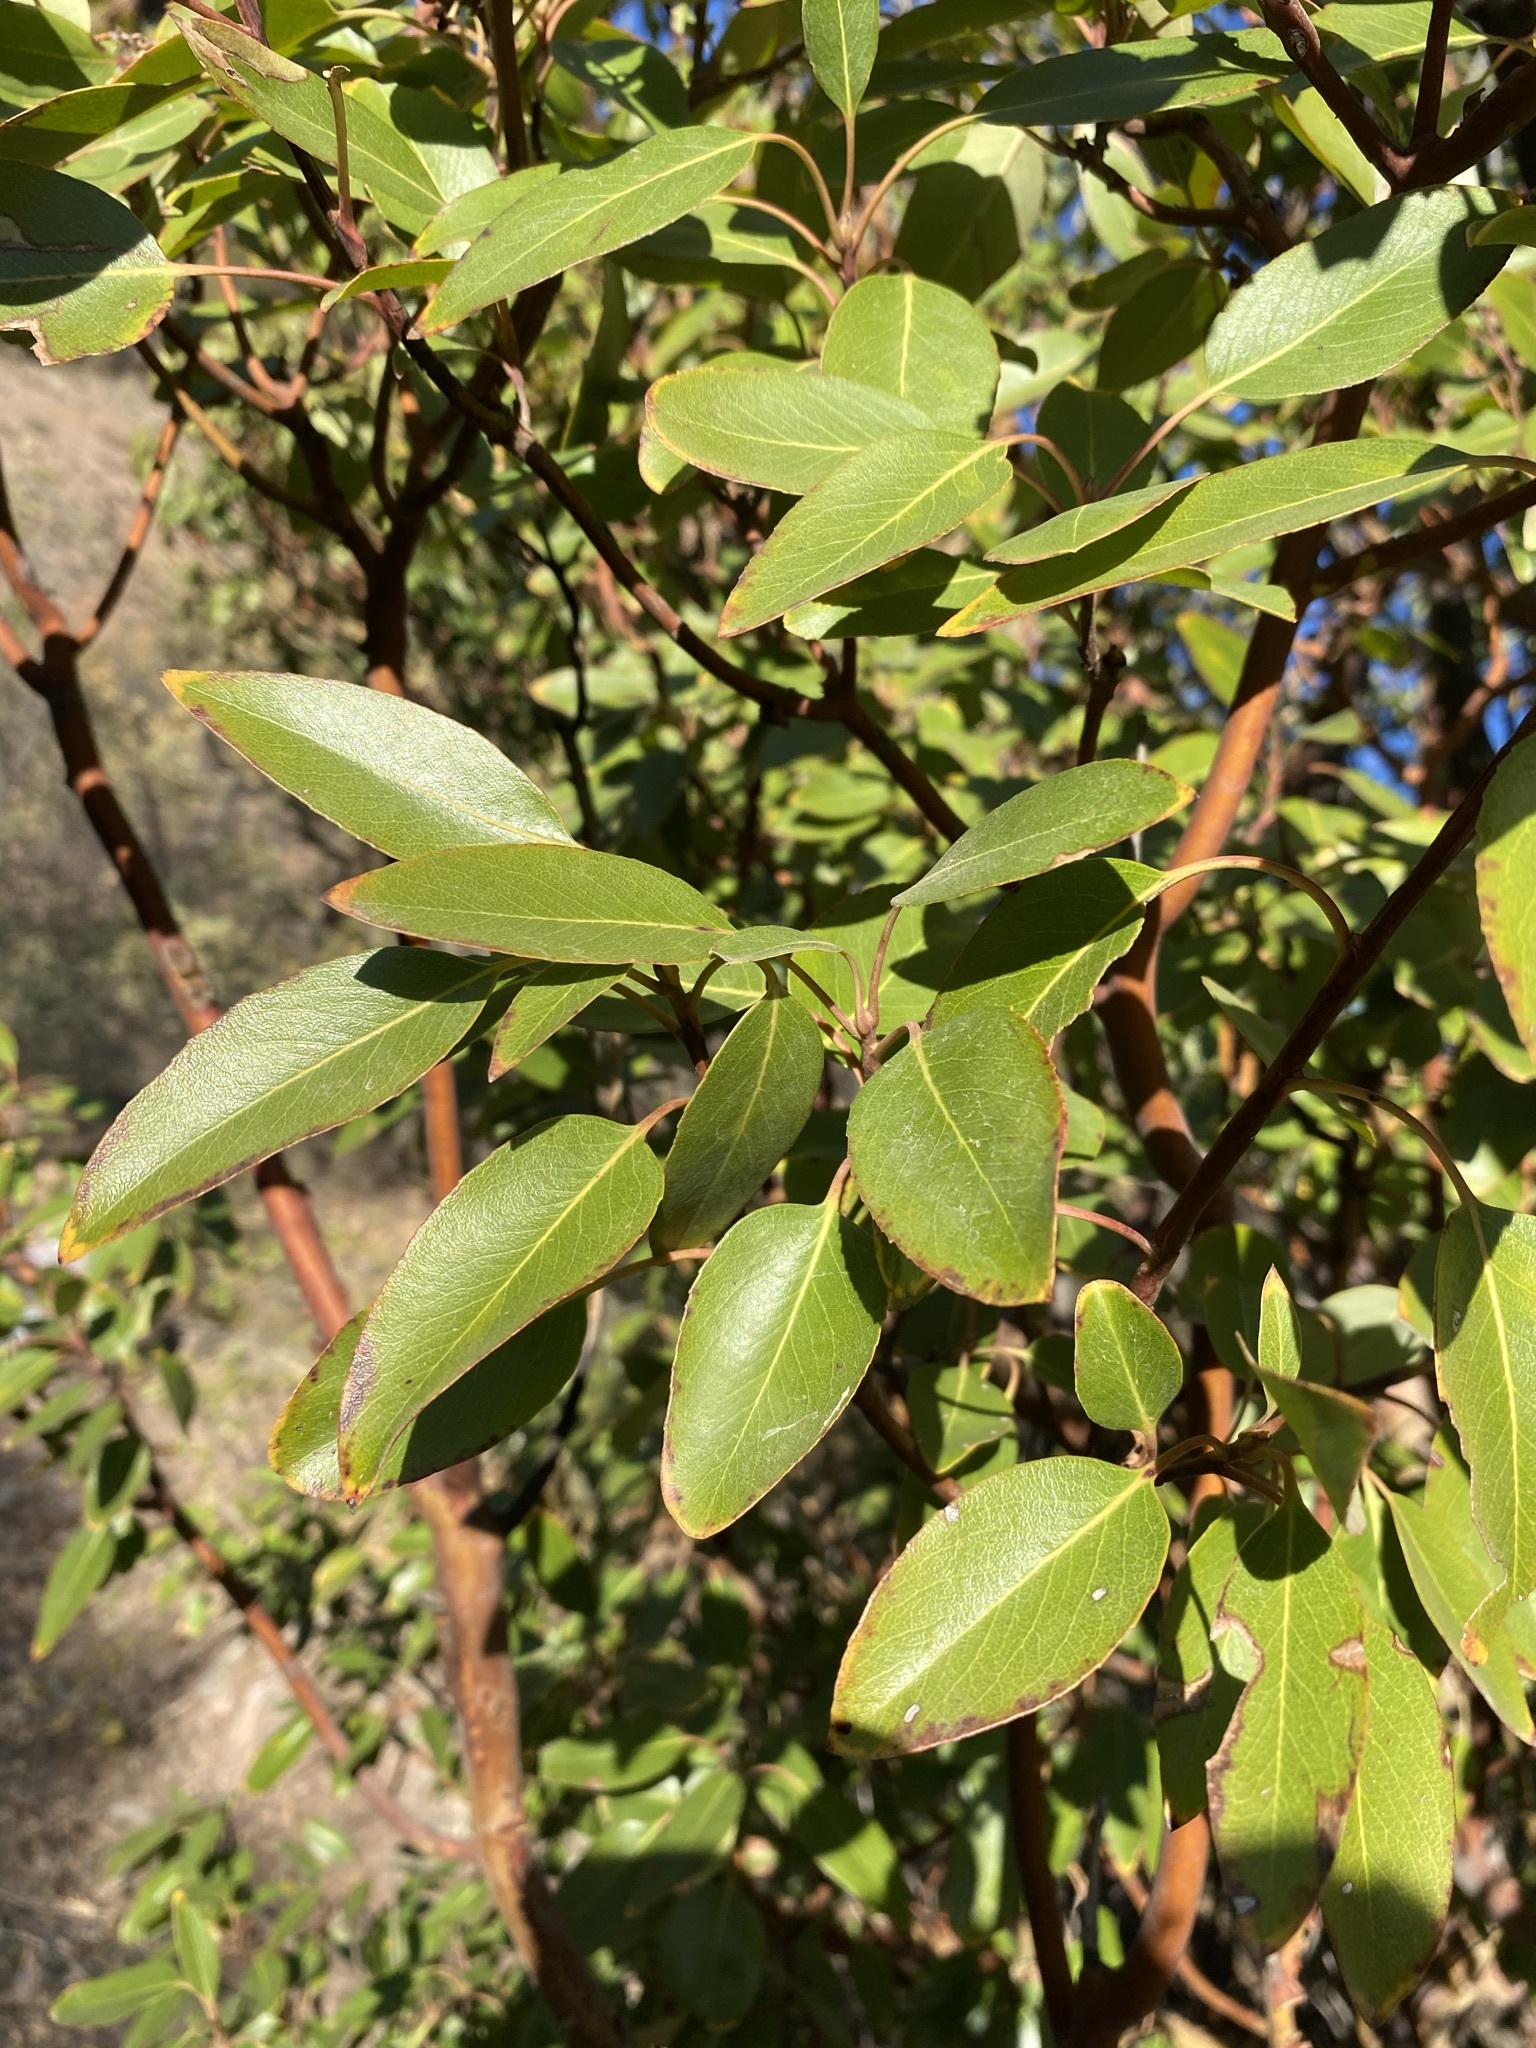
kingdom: Plantae
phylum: Tracheophyta
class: Magnoliopsida
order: Ericales
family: Ericaceae
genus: Arbutus
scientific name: Arbutus xalapensis
